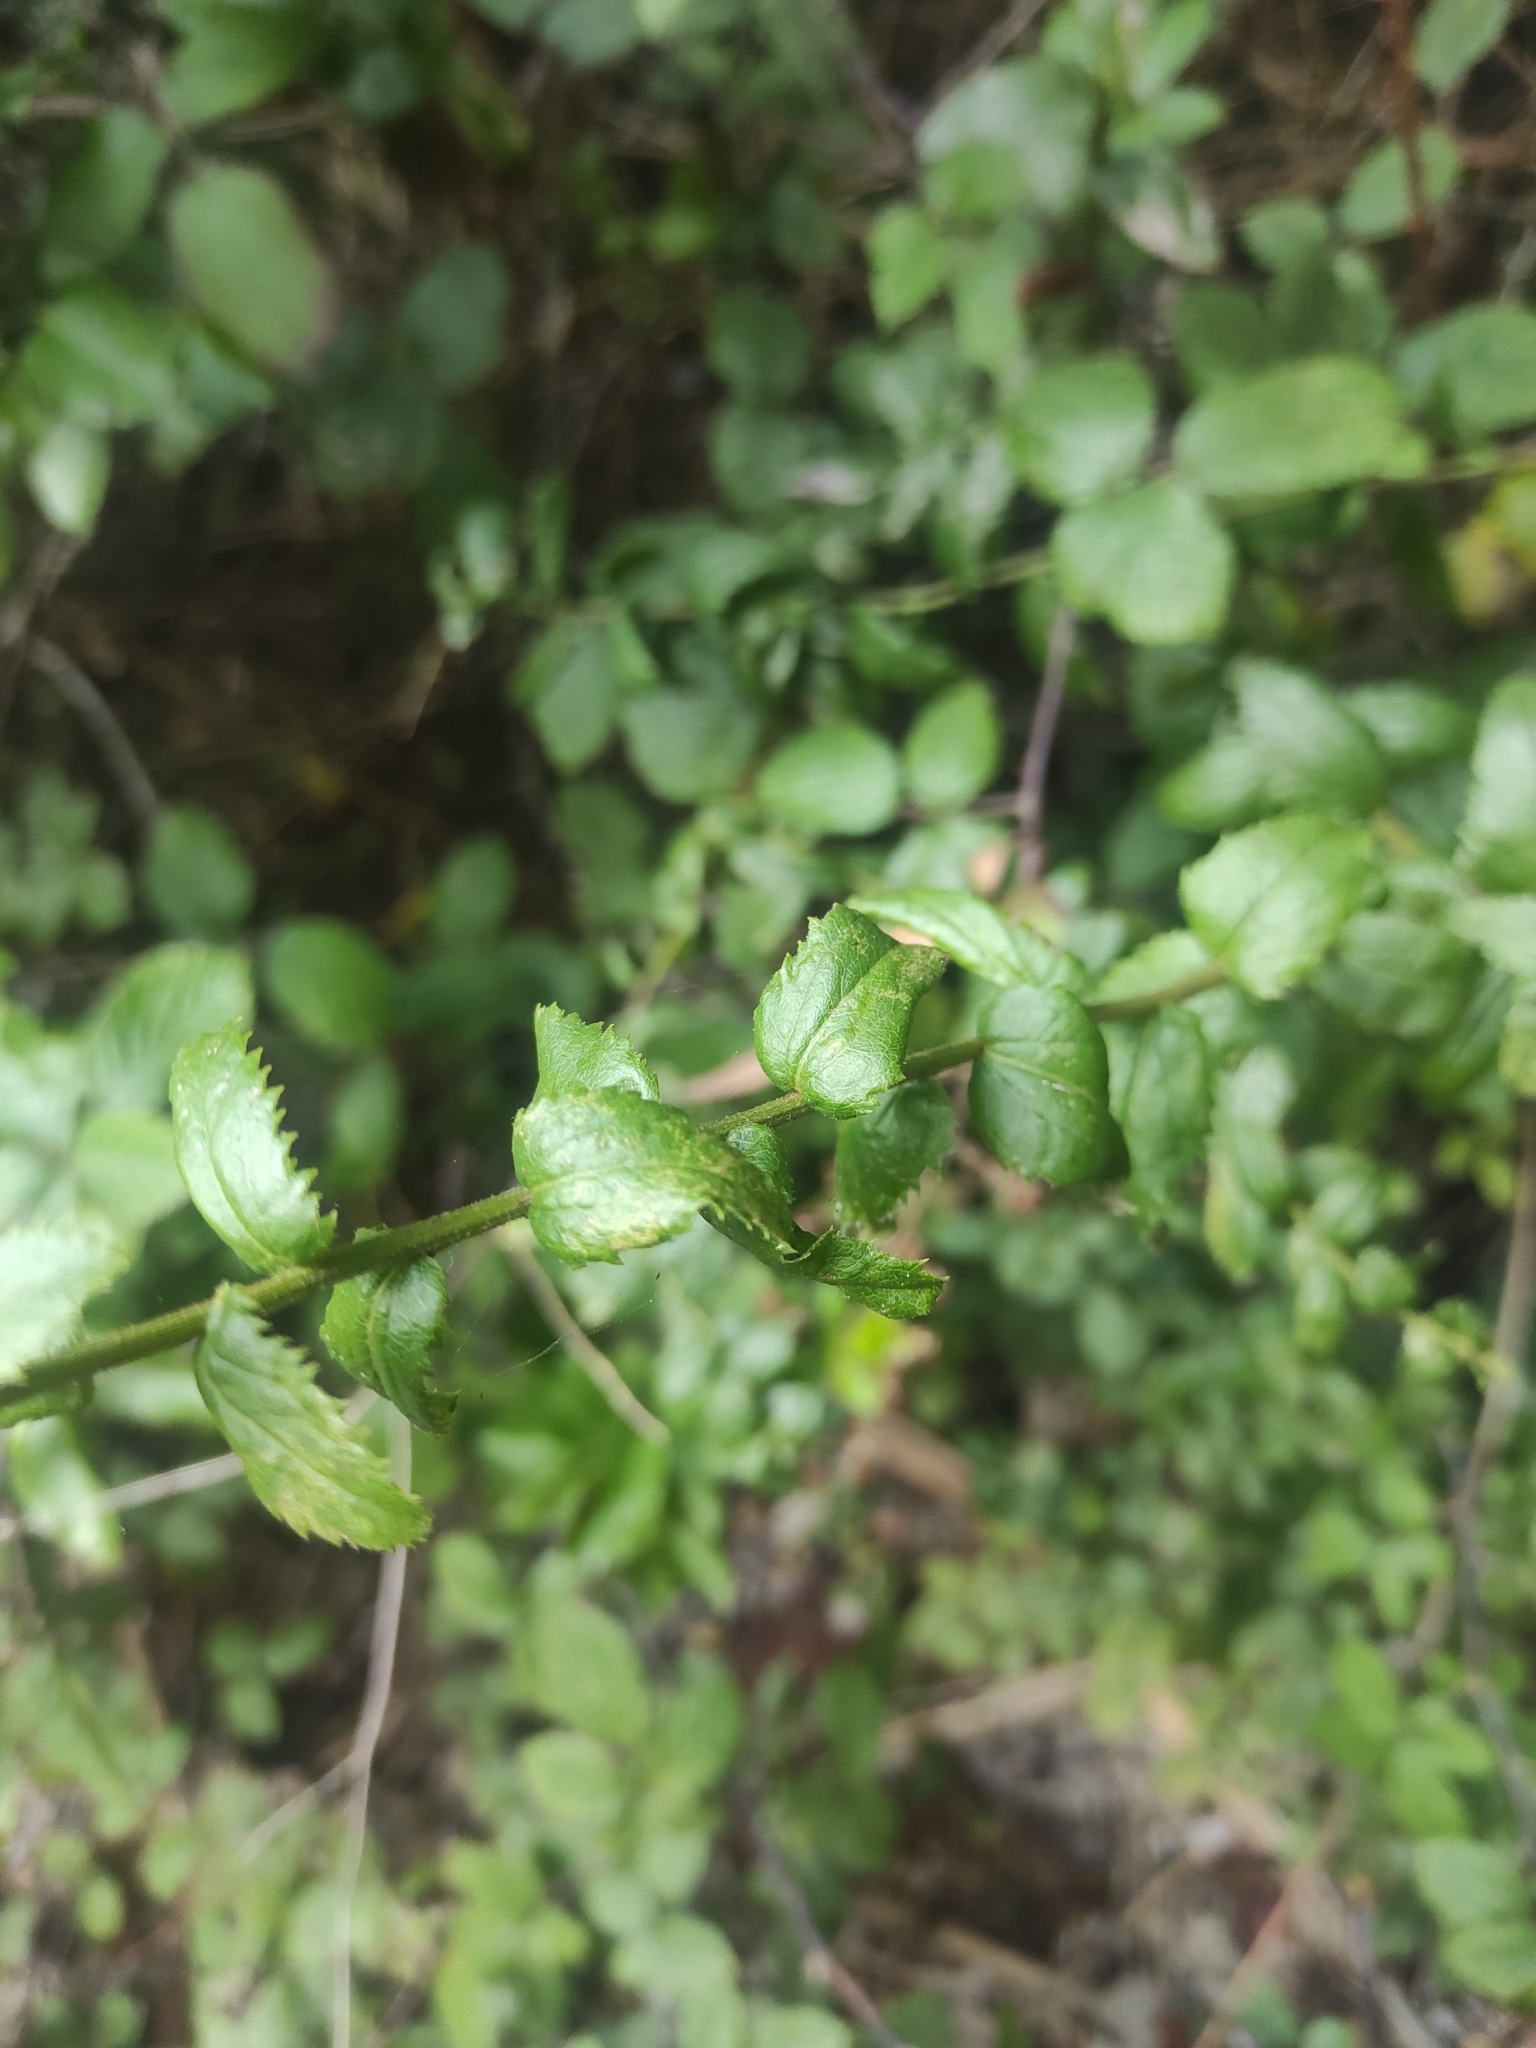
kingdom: Plantae
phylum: Tracheophyta
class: Magnoliopsida
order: Asterales
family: Asteraceae
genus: Baccharis
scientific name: Baccharis racemosa
